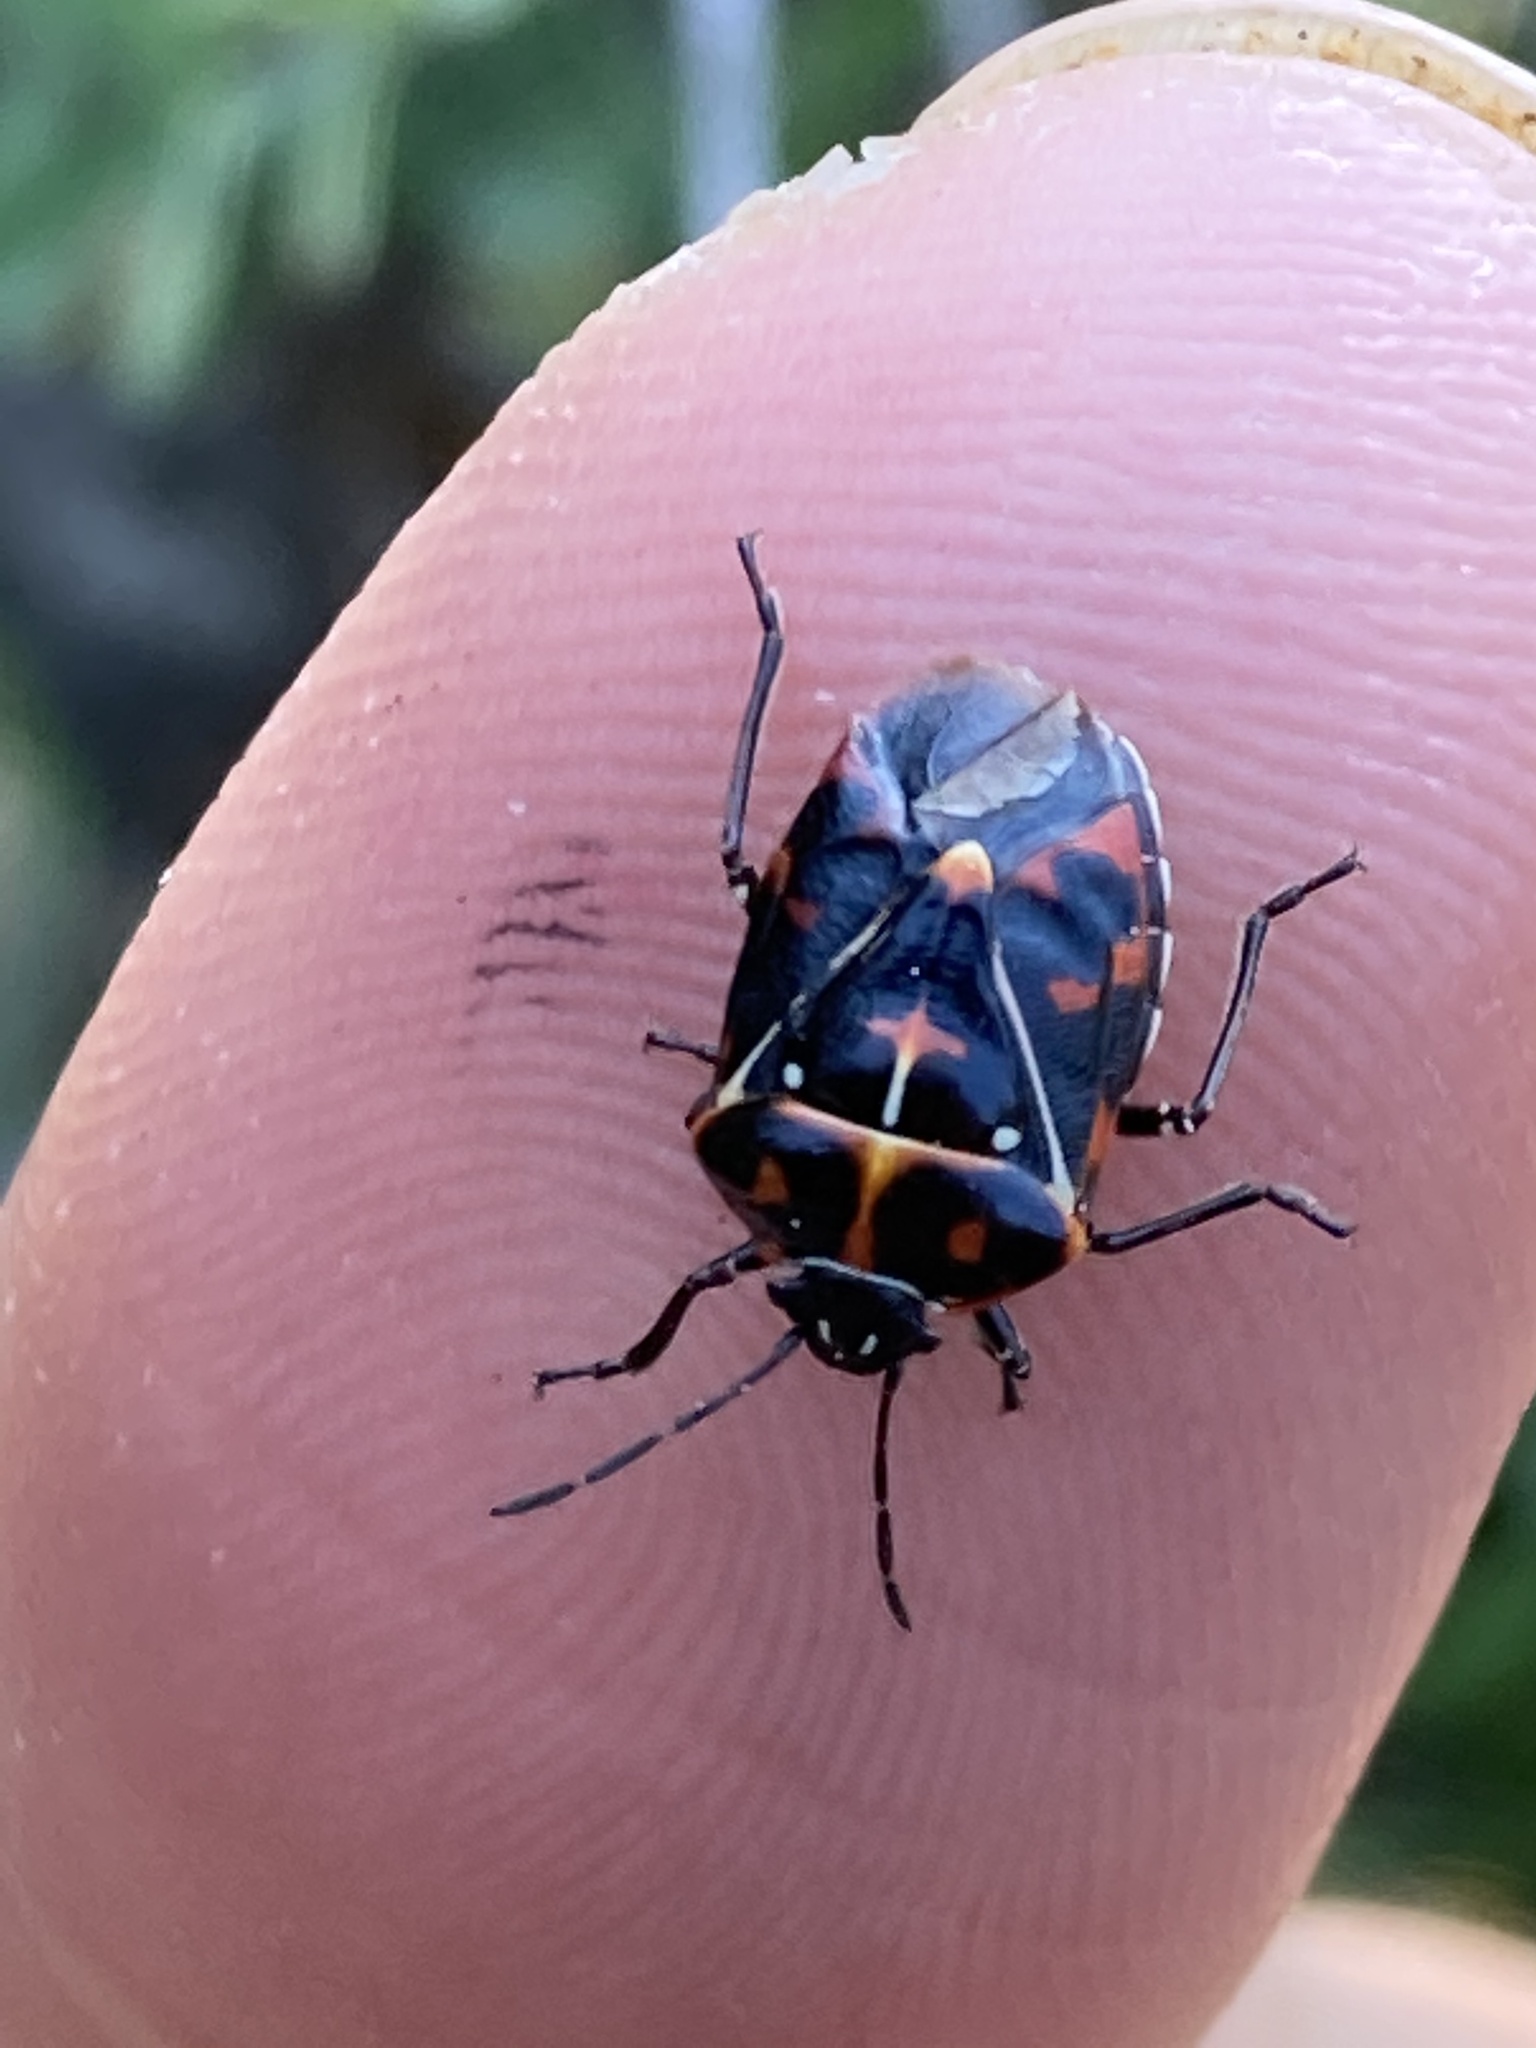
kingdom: Animalia
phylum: Arthropoda
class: Insecta
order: Hemiptera
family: Pentatomidae
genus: Murgantia
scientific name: Murgantia histrionica
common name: Harlequin bug
